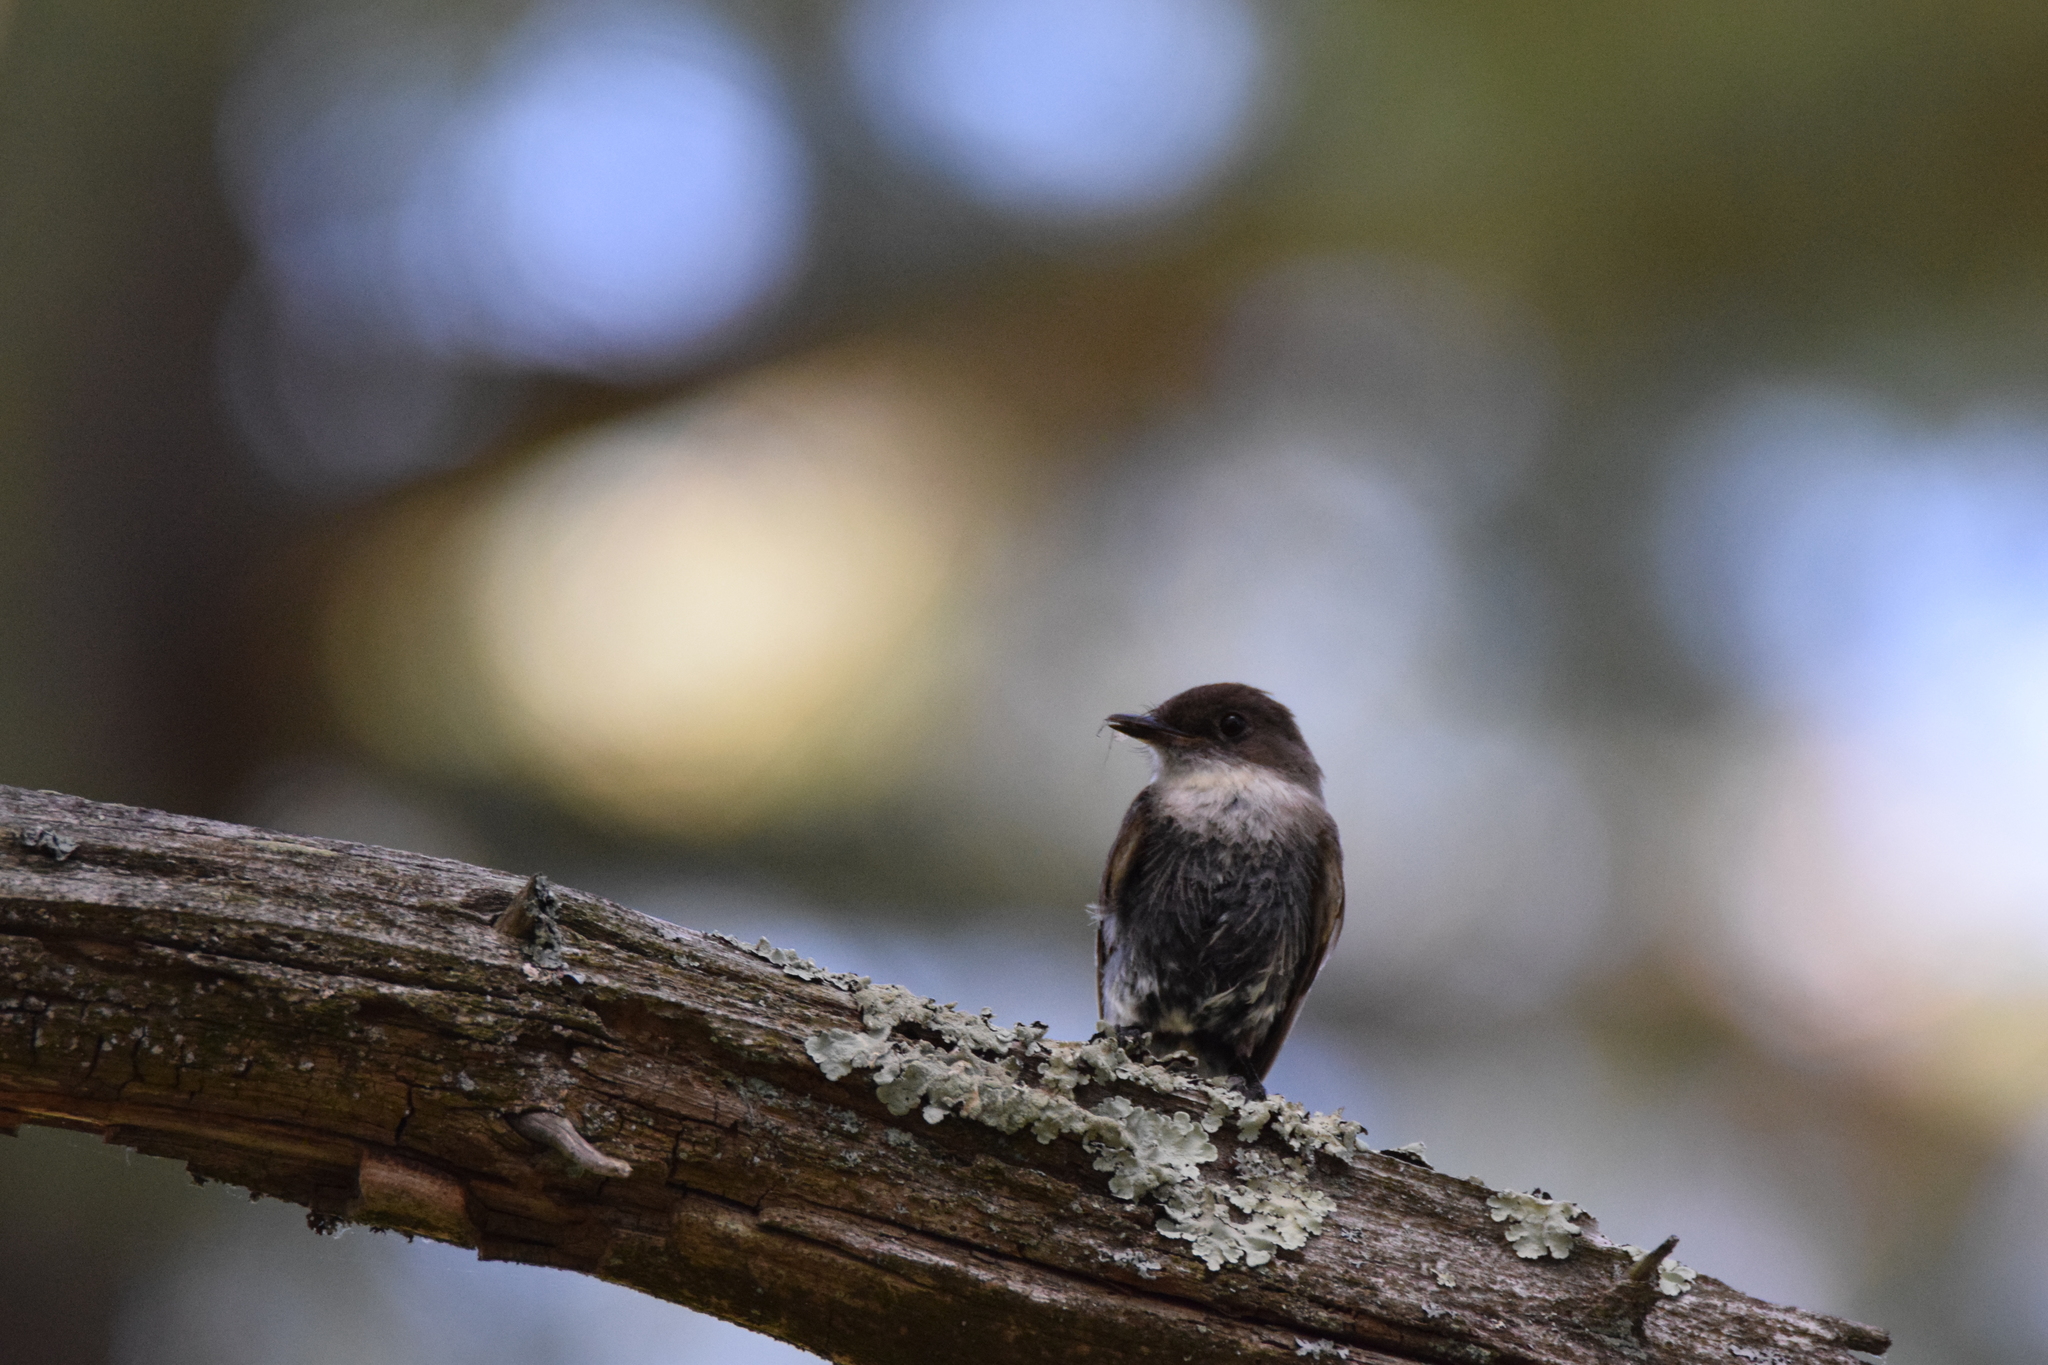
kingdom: Animalia
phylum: Chordata
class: Aves
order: Passeriformes
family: Tyrannidae
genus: Sayornis
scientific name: Sayornis phoebe
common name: Eastern phoebe
